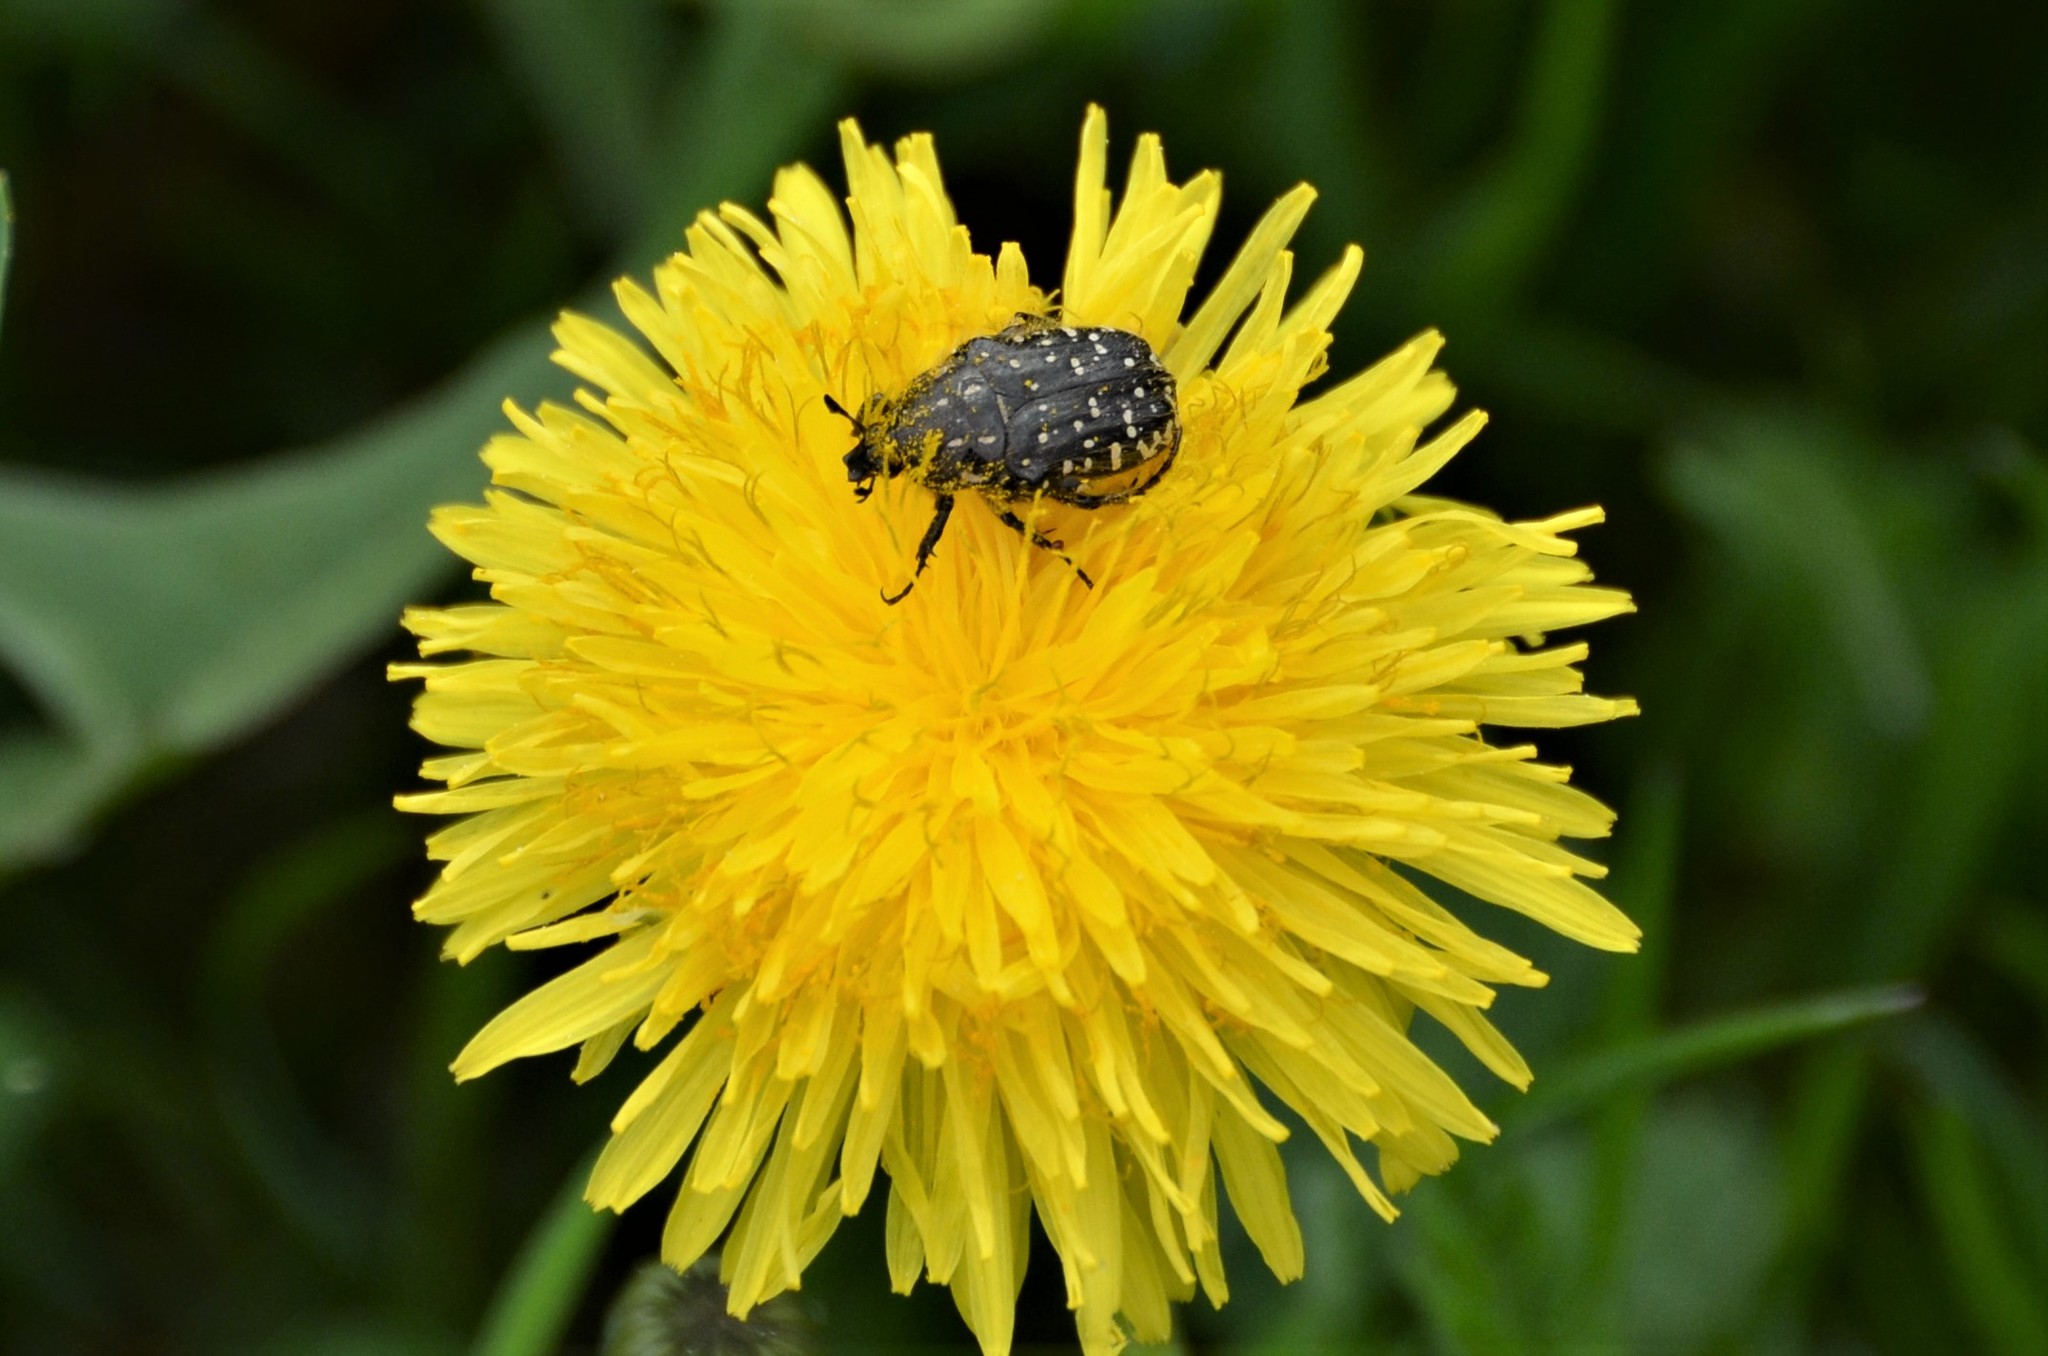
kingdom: Animalia
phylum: Arthropoda
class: Insecta
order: Coleoptera
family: Scarabaeidae
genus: Oxythyrea
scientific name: Oxythyrea funesta
